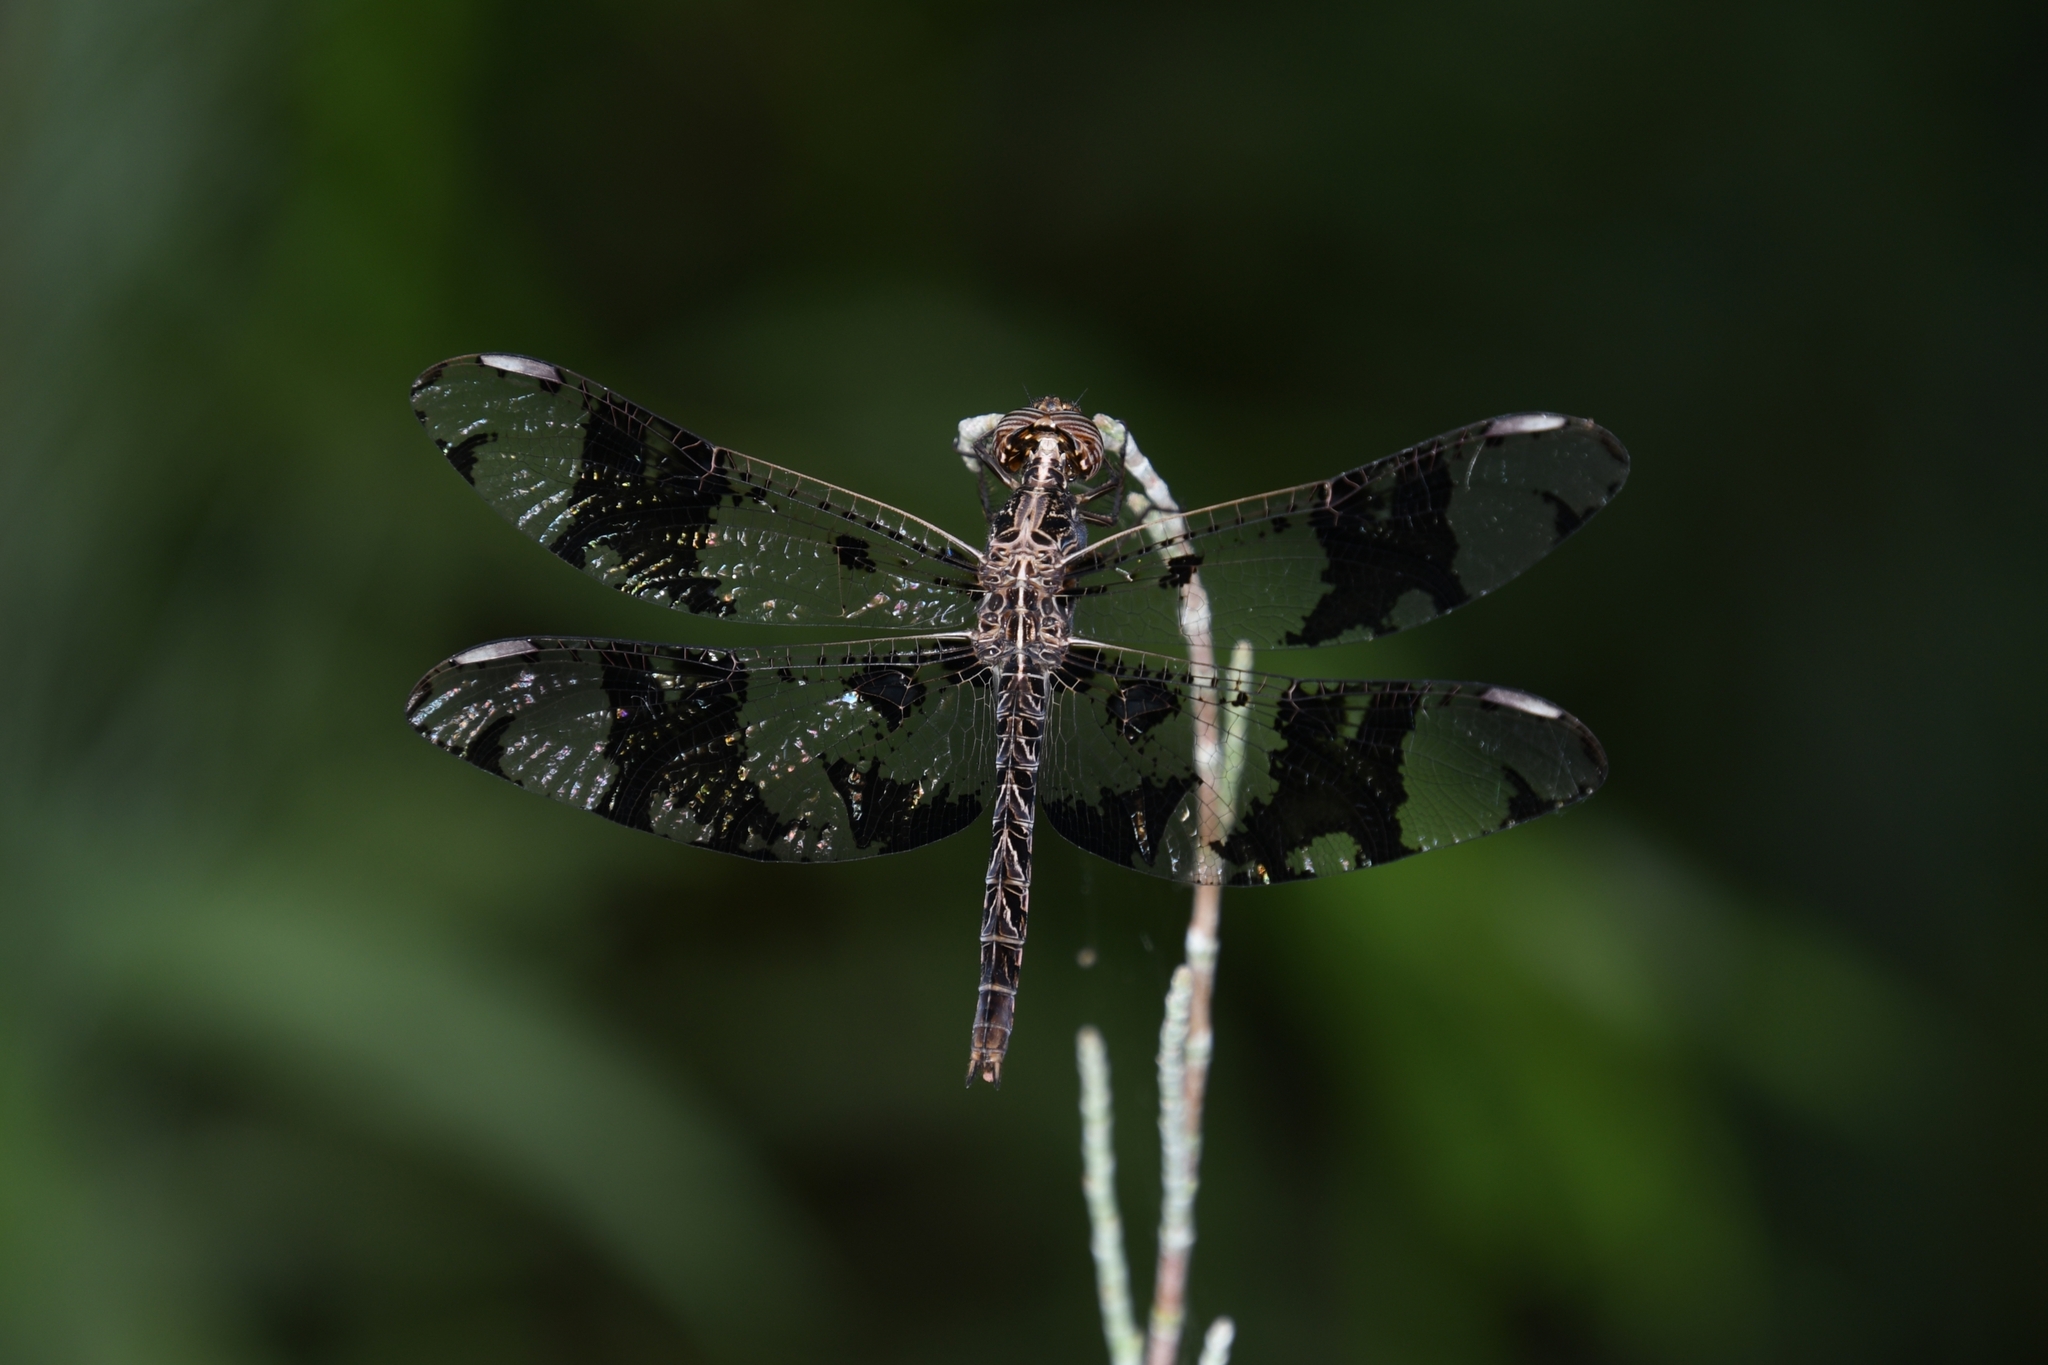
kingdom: Animalia
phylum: Arthropoda
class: Insecta
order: Odonata
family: Libellulidae
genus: Pseudoleon
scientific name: Pseudoleon superbus
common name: Filigree skimmer
